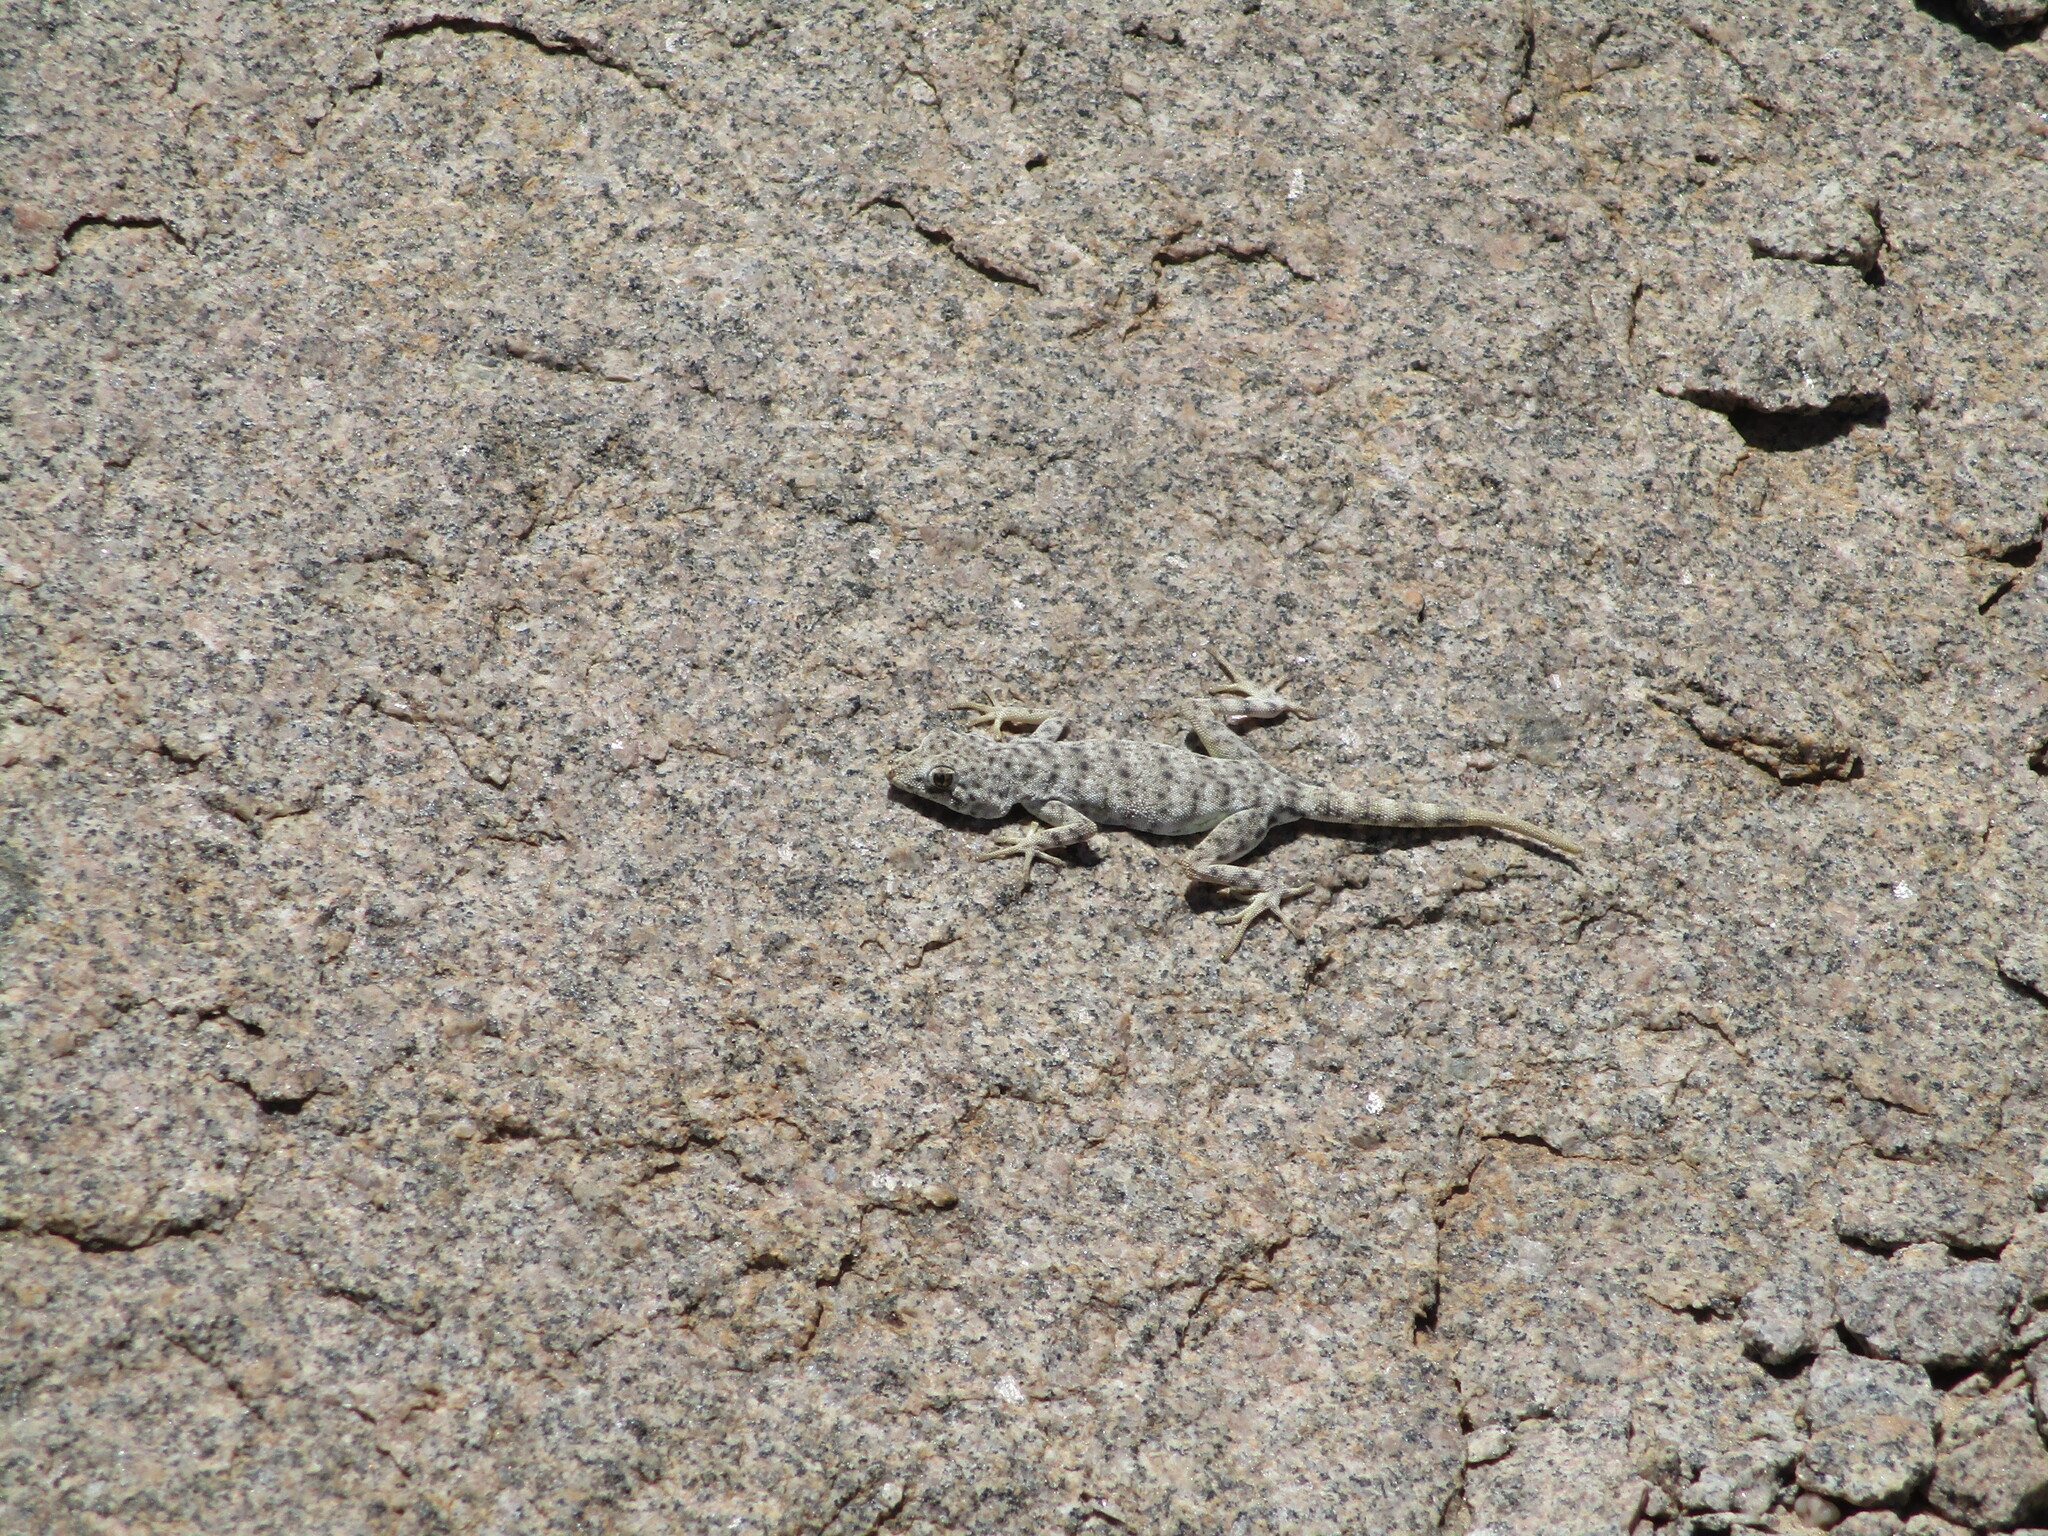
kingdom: Animalia
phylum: Chordata
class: Squamata
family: Gekkonidae
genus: Rhoptropus
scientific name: Rhoptropus afer
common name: Namib day gecko
